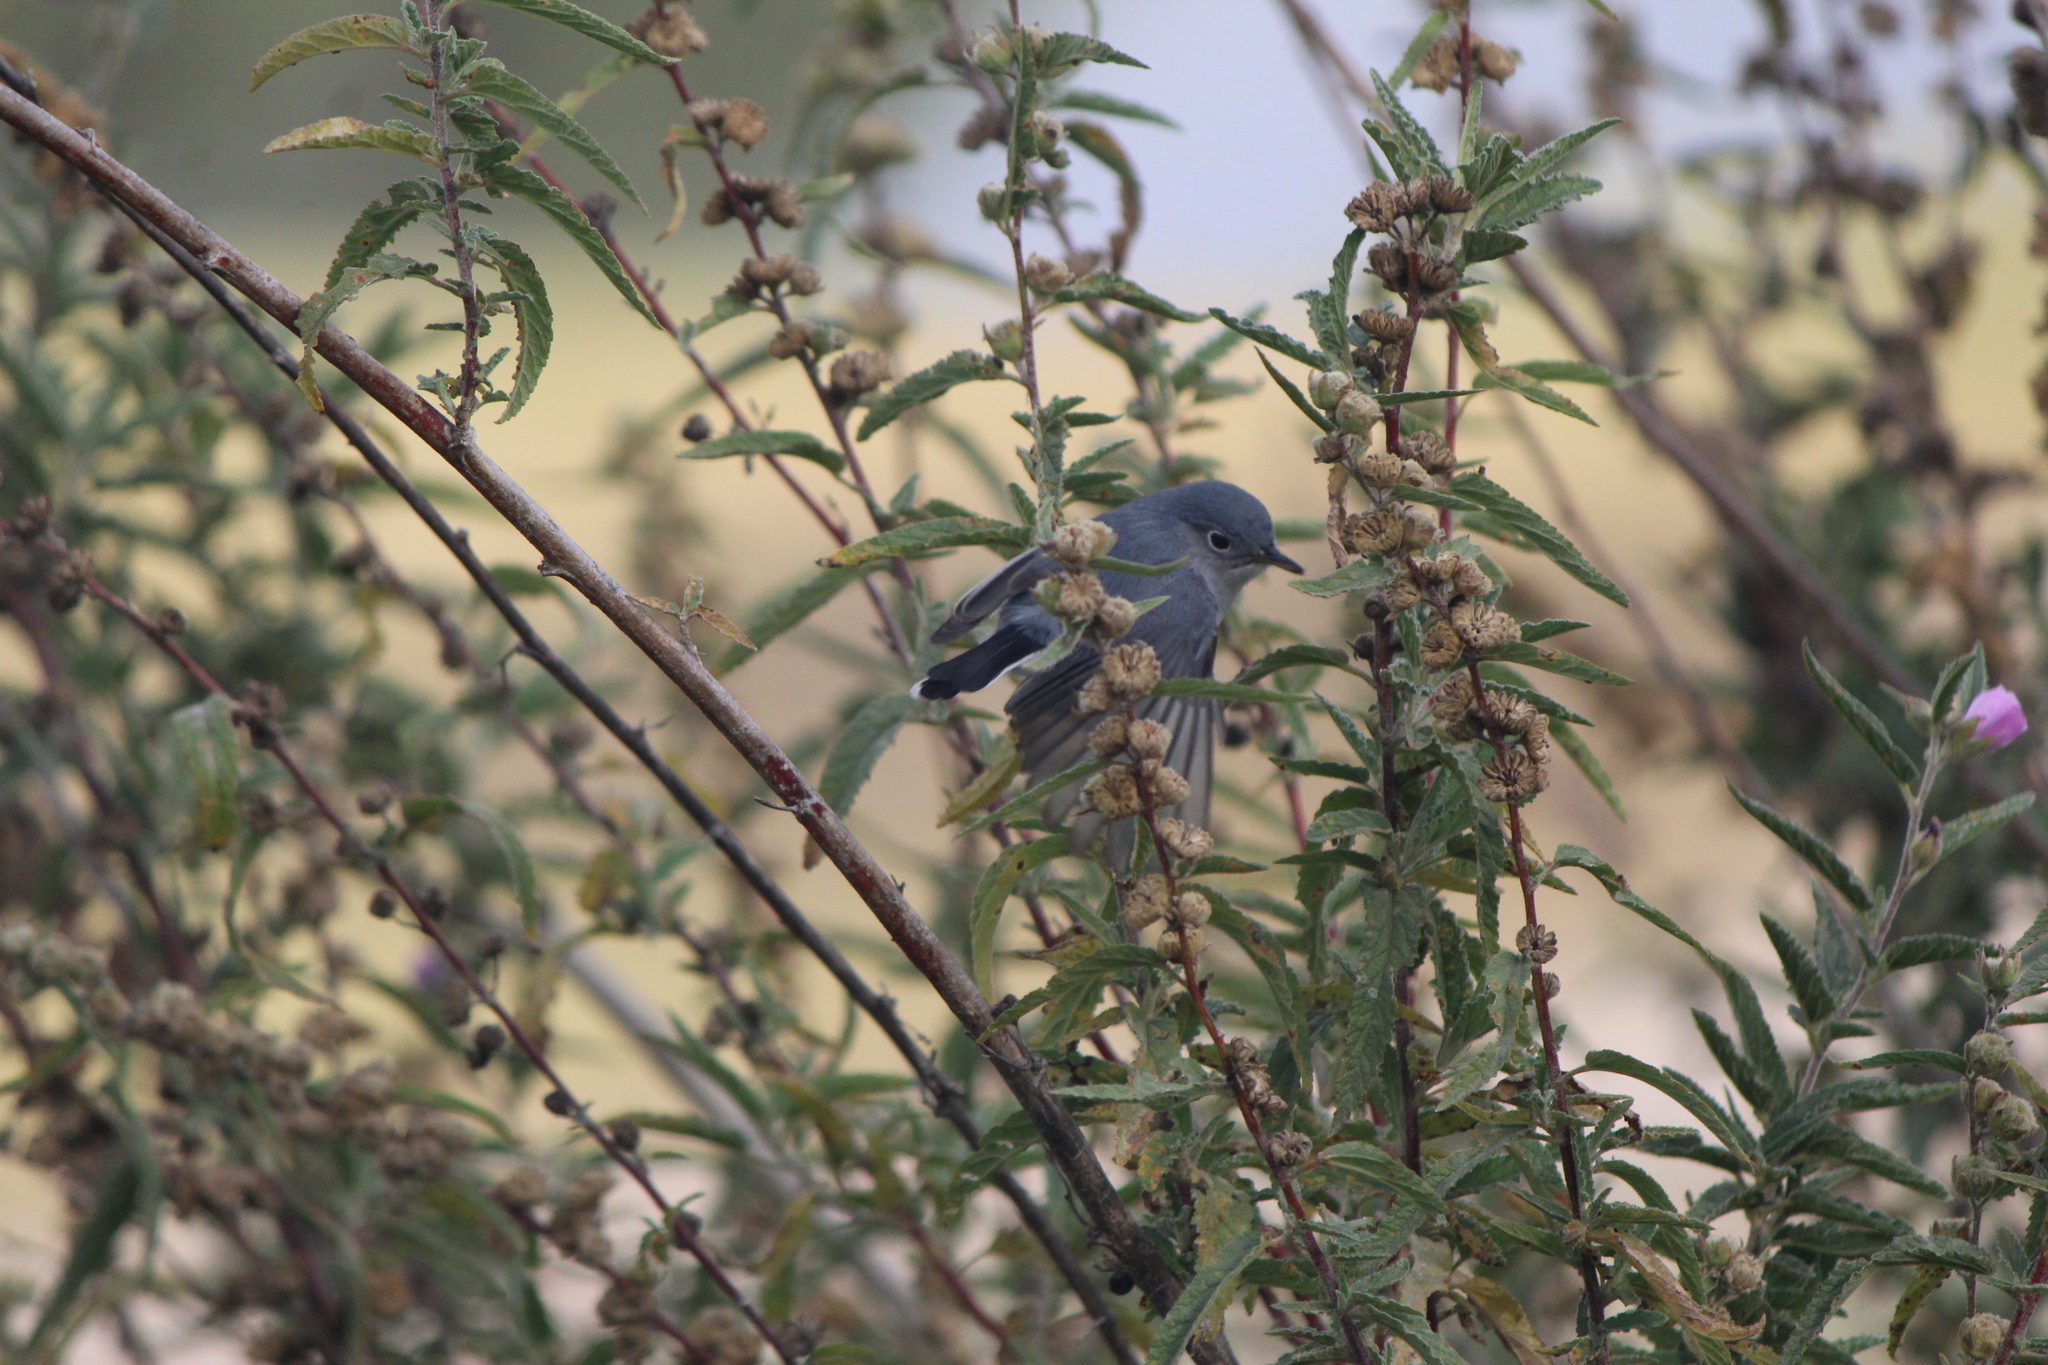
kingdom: Animalia
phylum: Chordata
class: Aves
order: Passeriformes
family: Polioptilidae
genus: Polioptila
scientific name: Polioptila caerulea
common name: Blue-gray gnatcatcher
